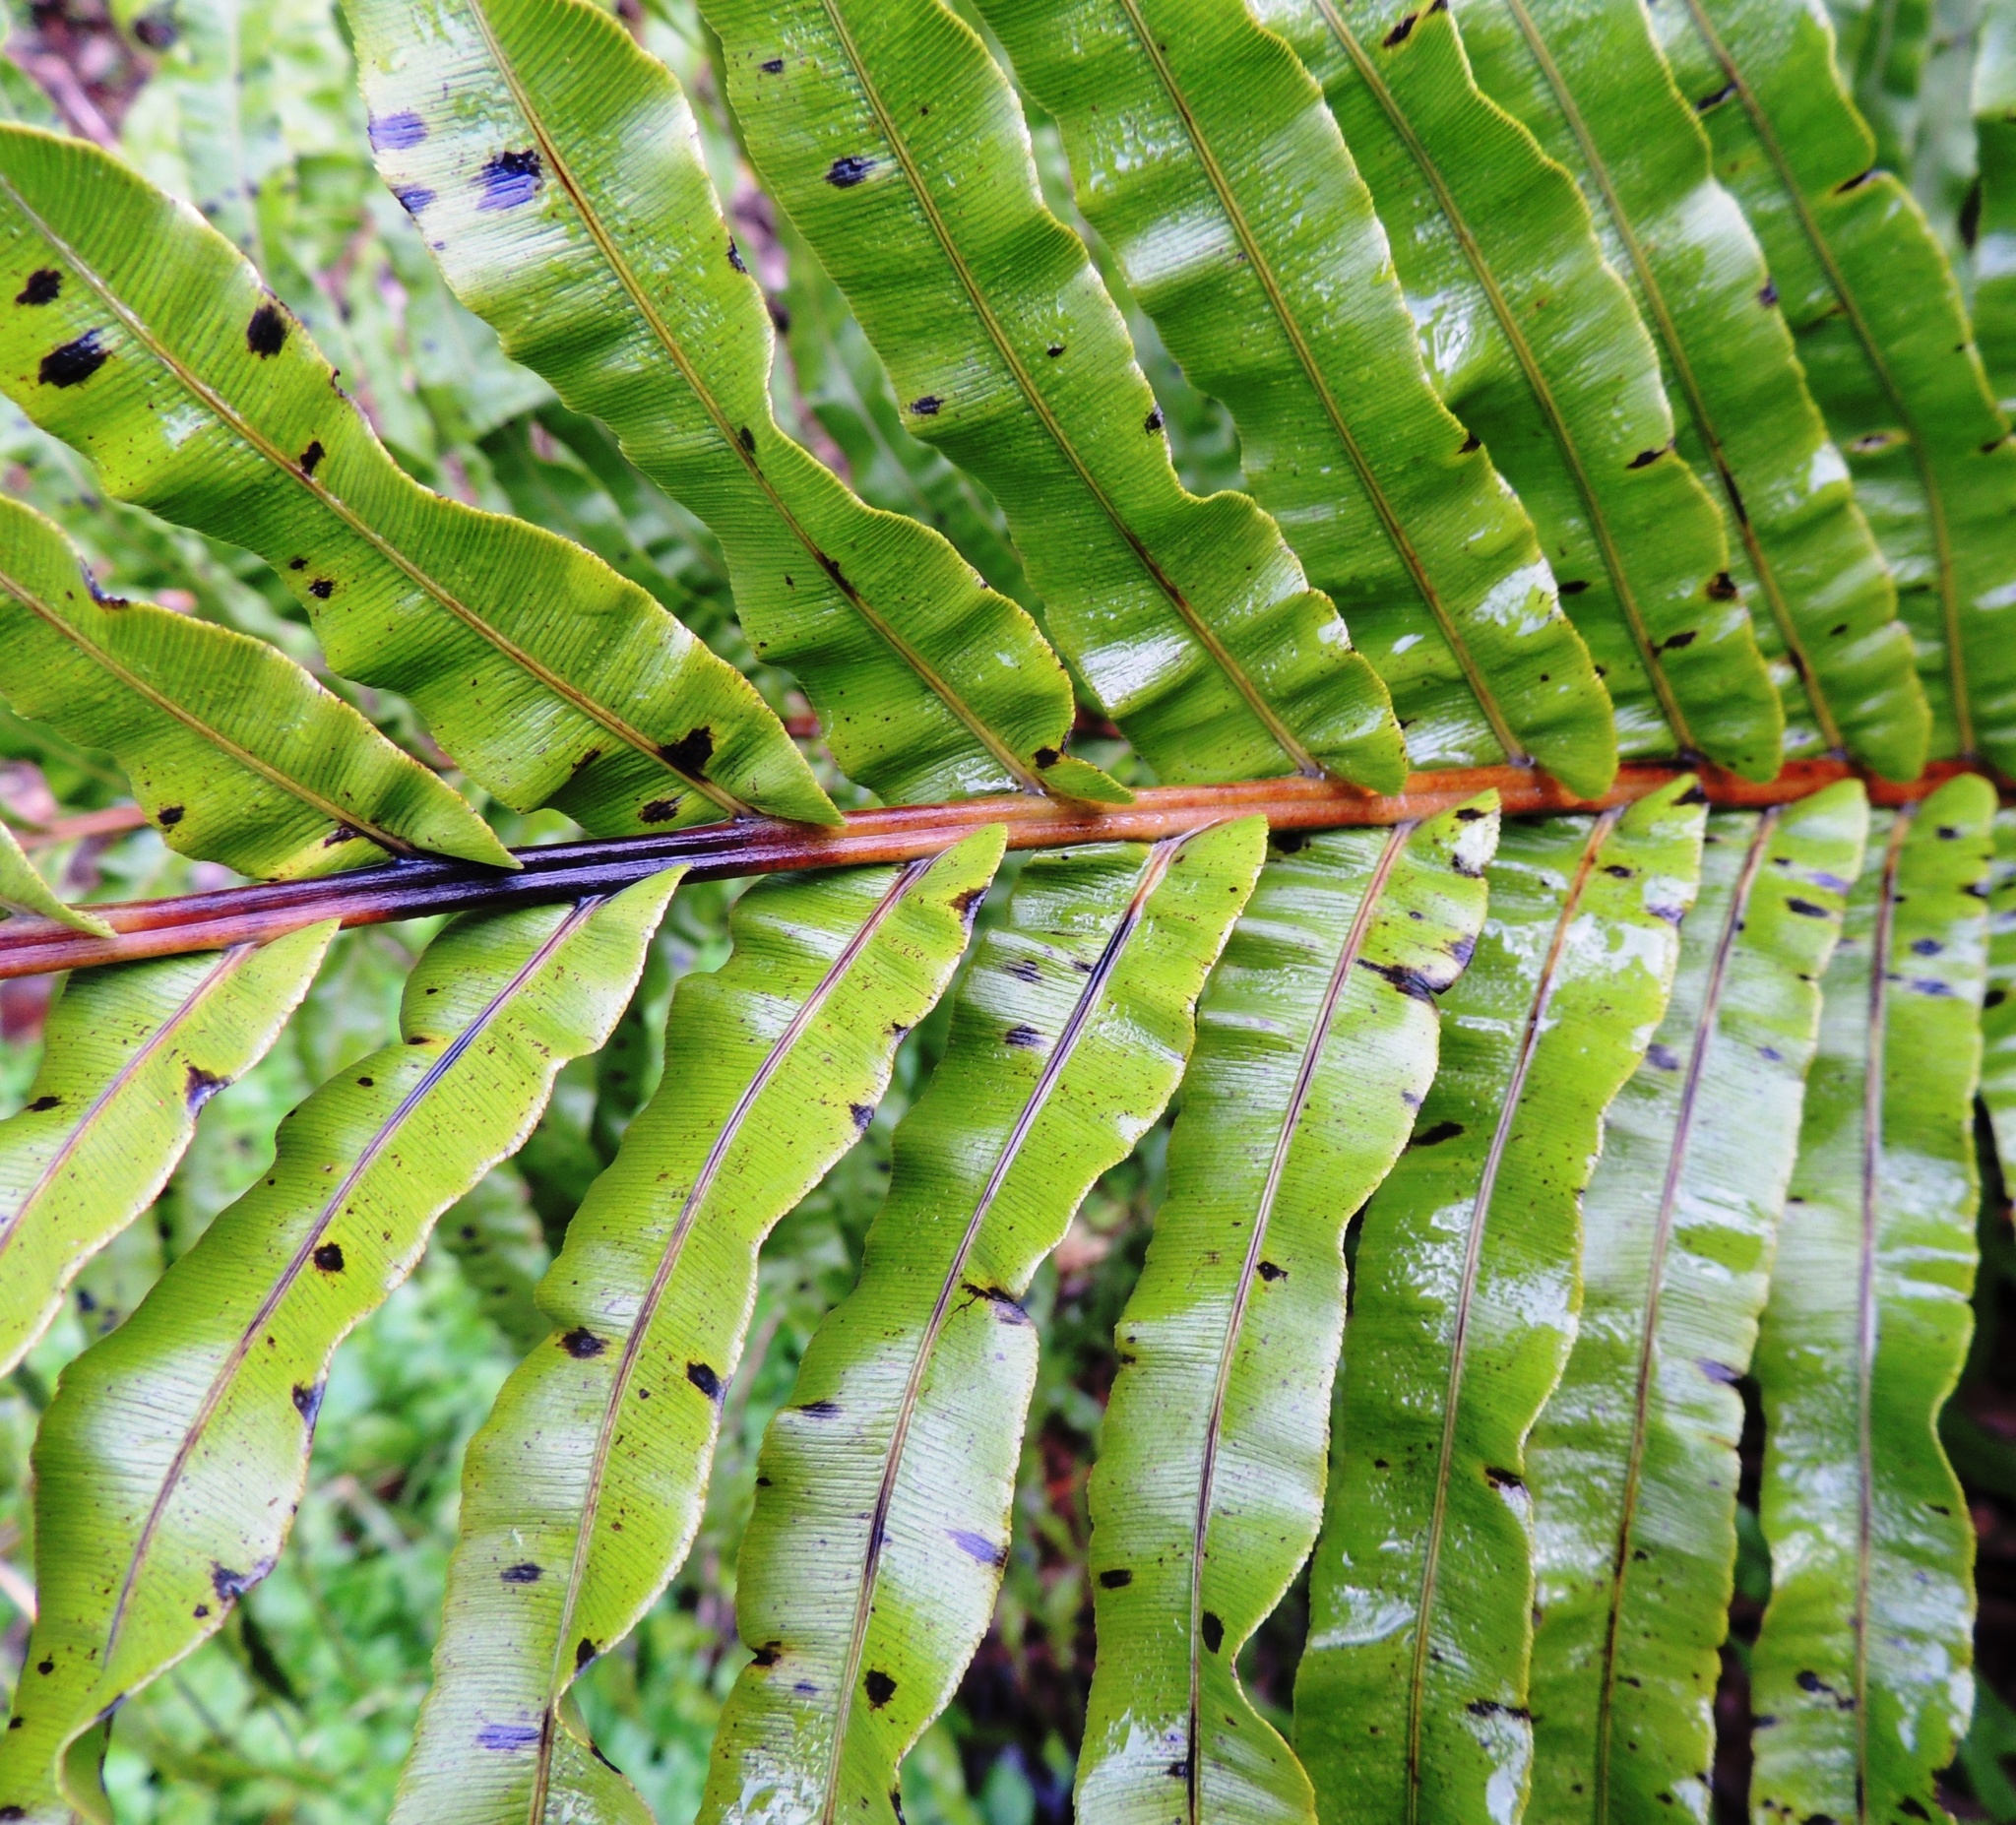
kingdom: Plantae
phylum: Tracheophyta
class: Polypodiopsida
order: Polypodiales
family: Blechnaceae
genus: Parablechnum
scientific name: Parablechnum novae-zelandiae
